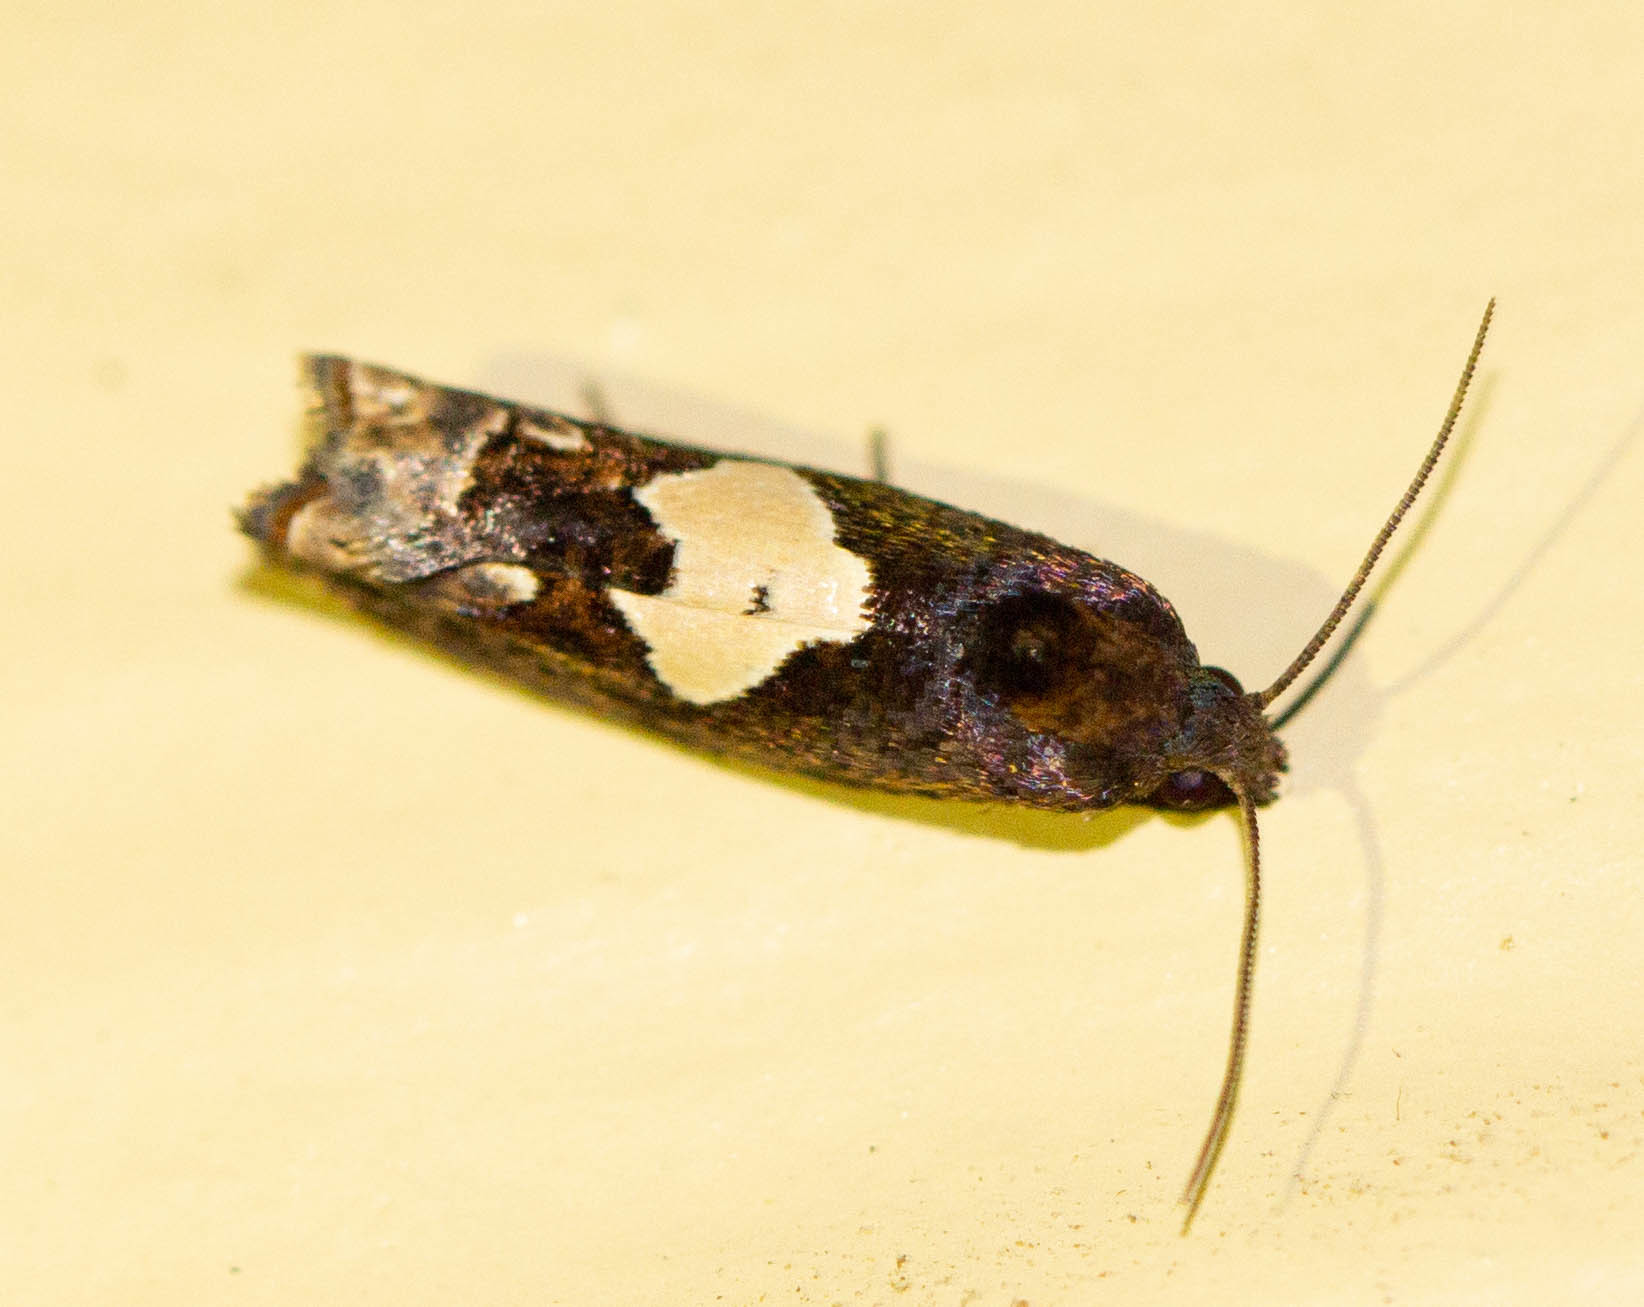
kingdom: Animalia
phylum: Arthropoda
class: Insecta
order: Lepidoptera
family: Tortricidae
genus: Epiblema
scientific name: Epiblema otiosana
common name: Bidens borer moth
